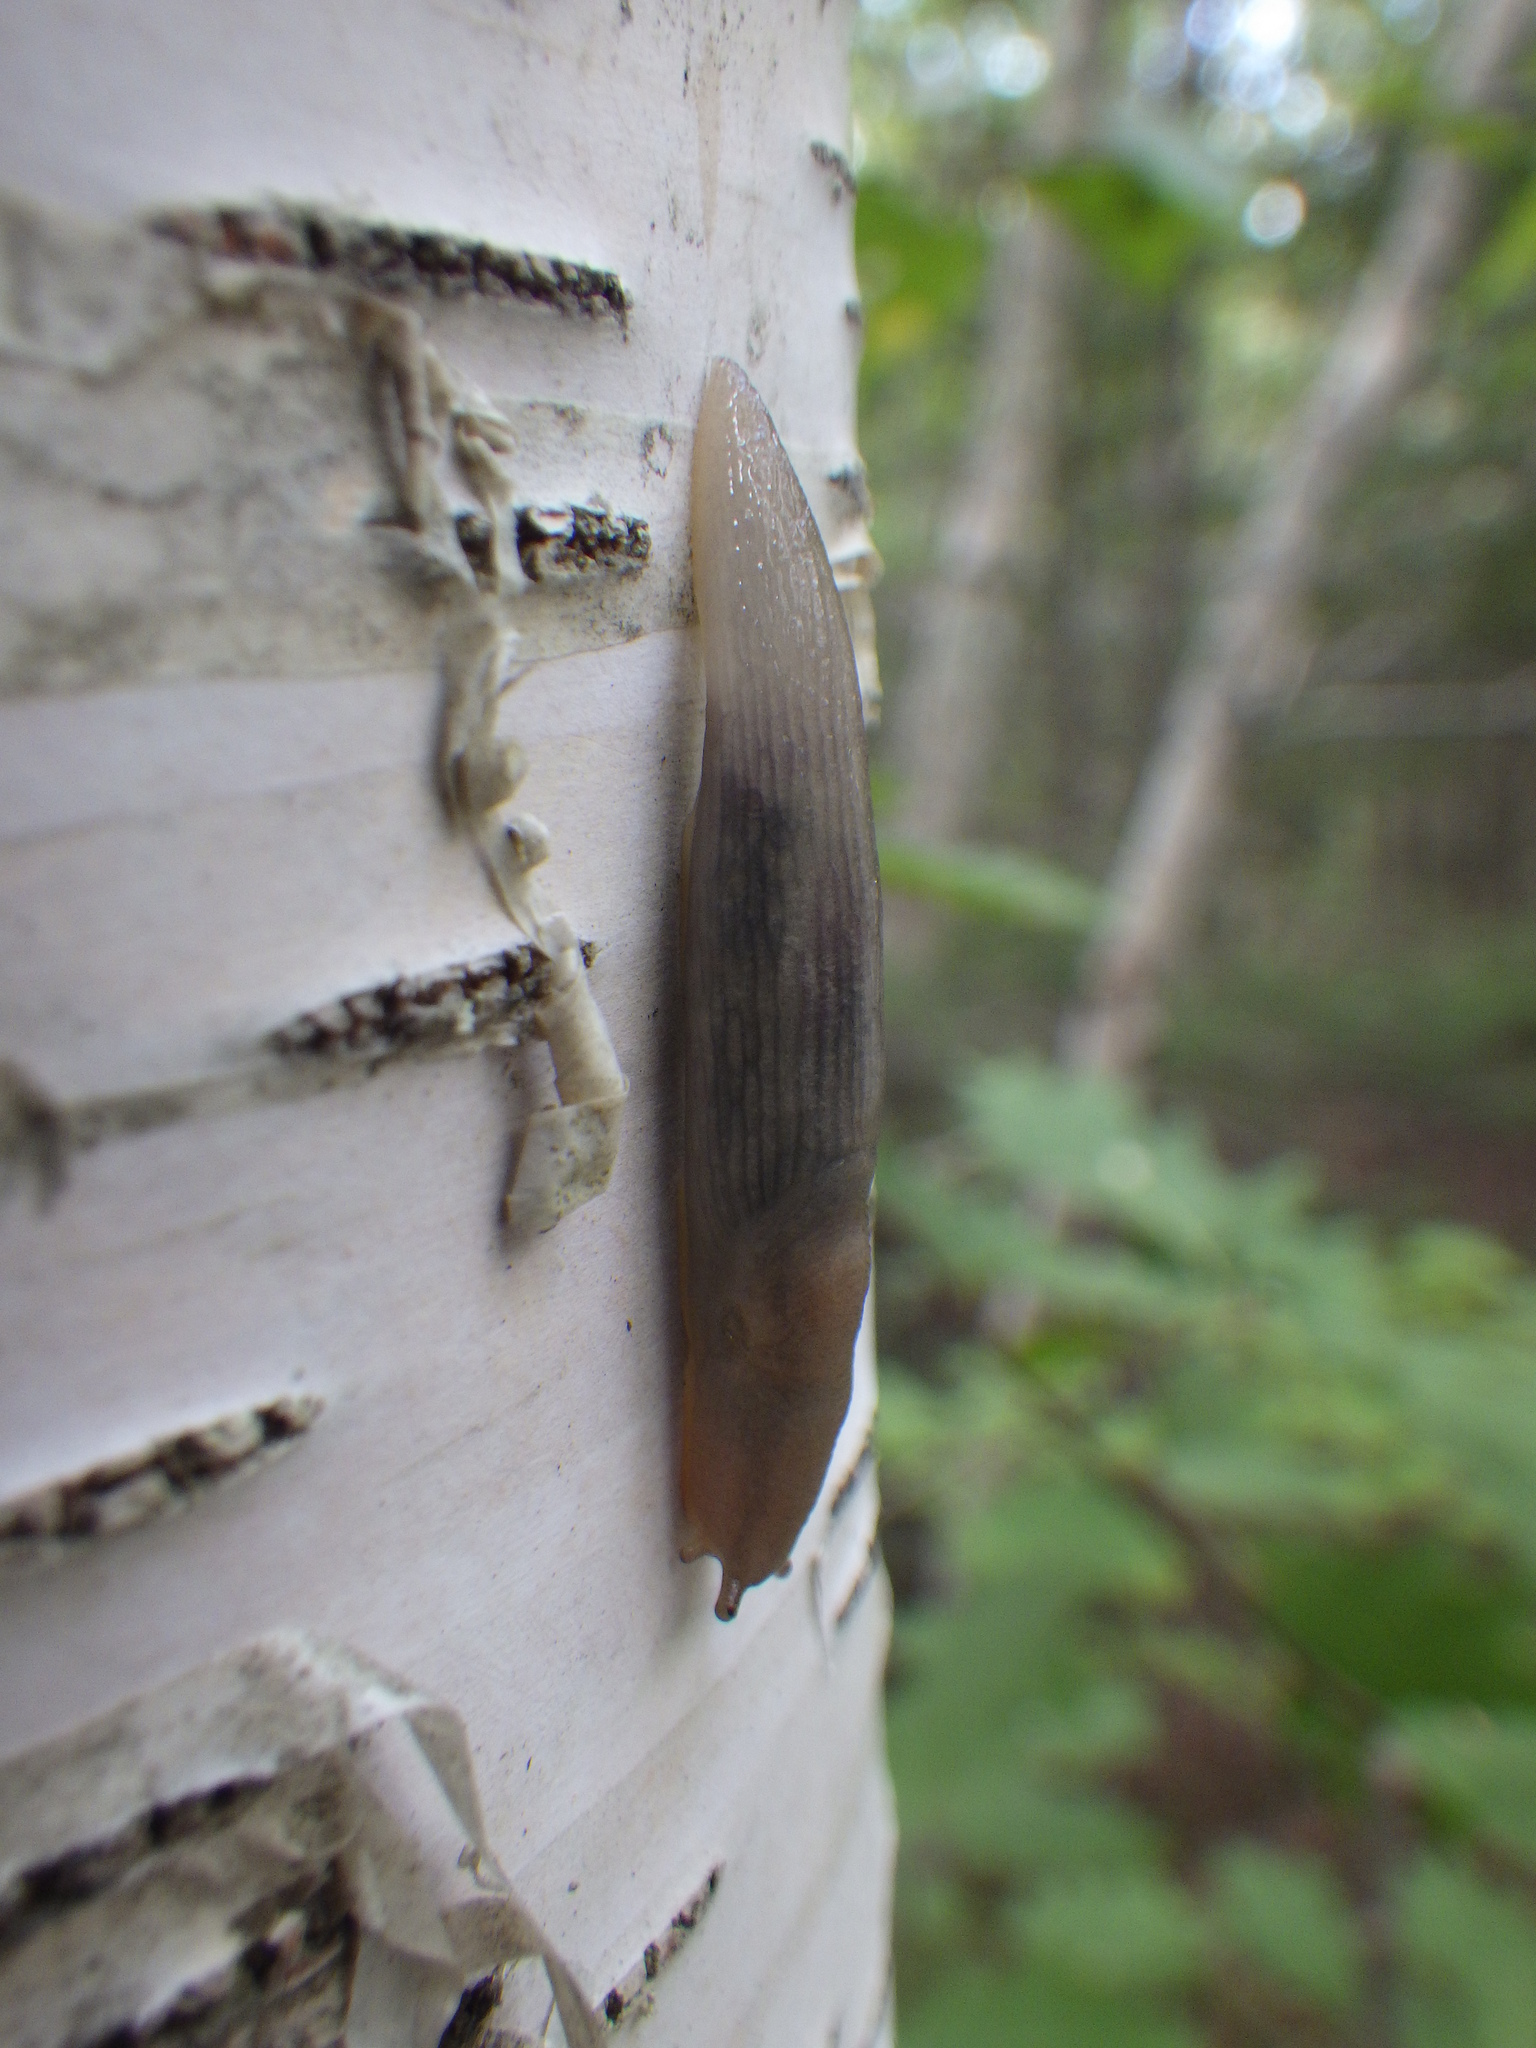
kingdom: Animalia
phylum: Mollusca
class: Gastropoda
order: Stylommatophora
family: Limacidae
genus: Lehmannia
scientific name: Lehmannia marginata
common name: Tree slug
